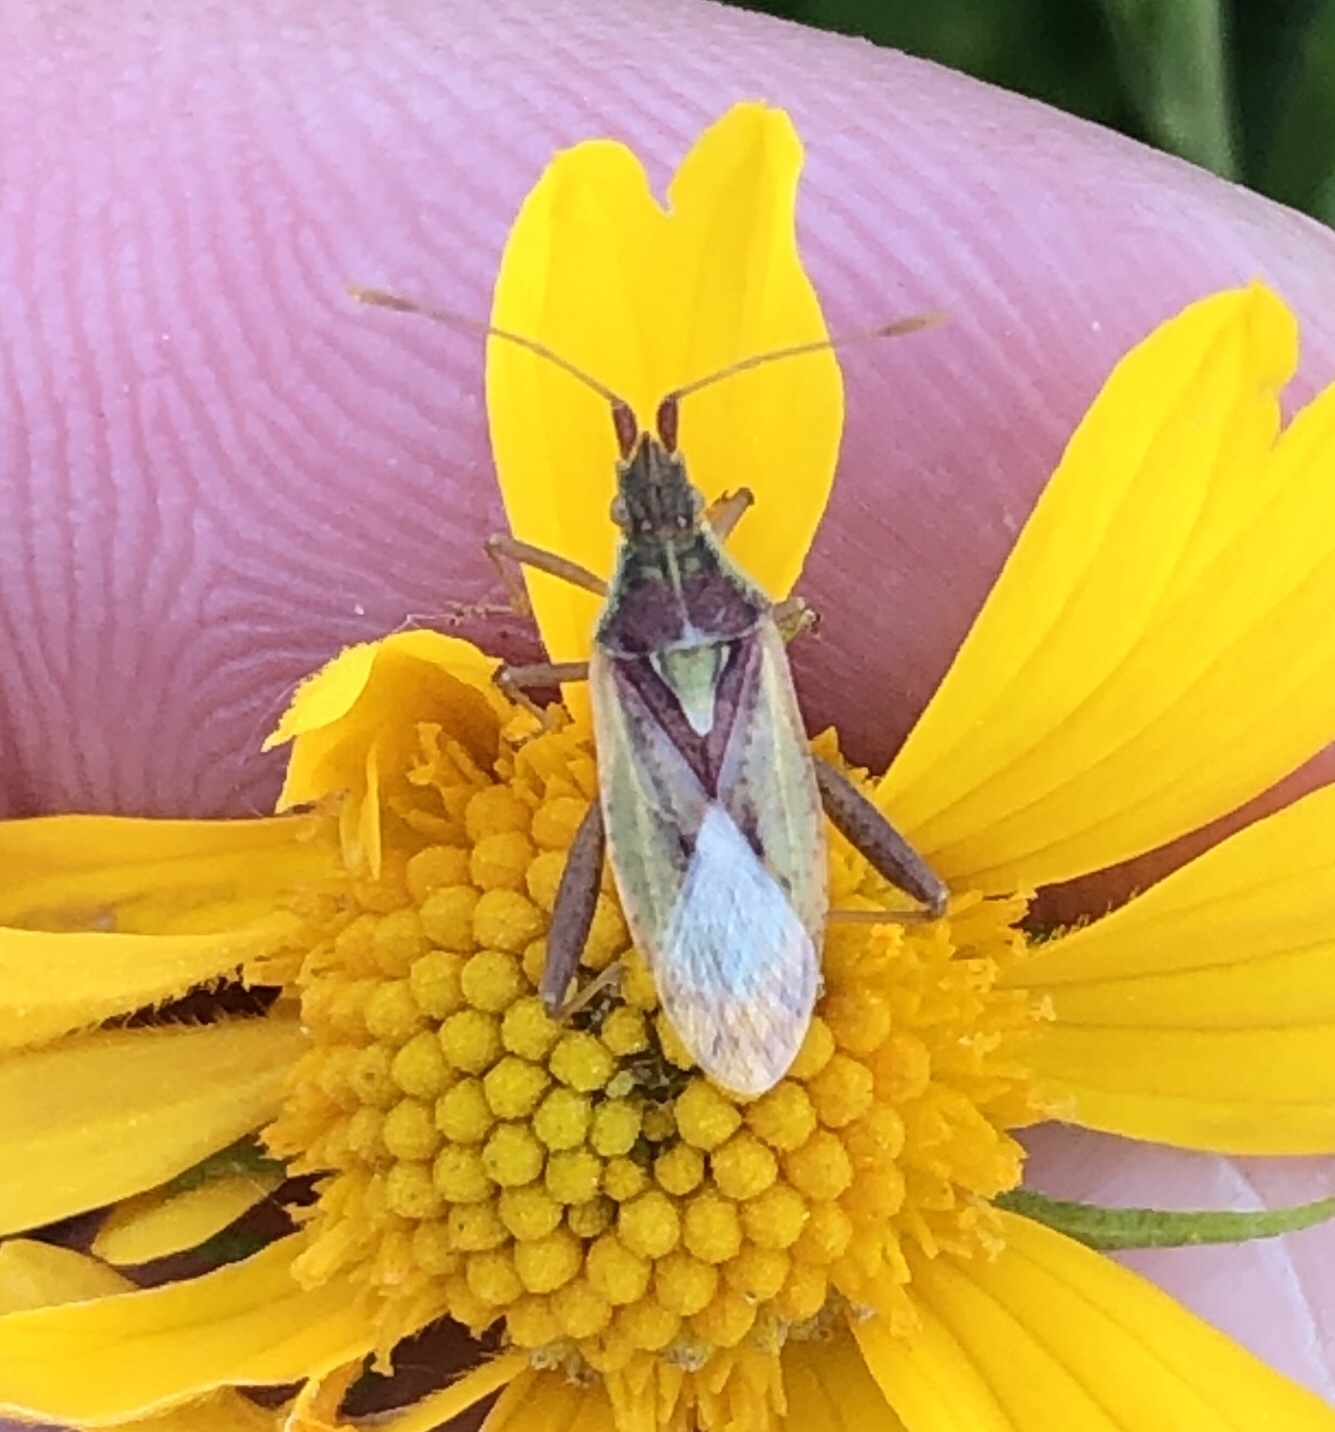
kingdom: Animalia
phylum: Arthropoda
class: Insecta
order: Hemiptera
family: Rhopalidae
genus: Harmostes
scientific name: Harmostes reflexulus
